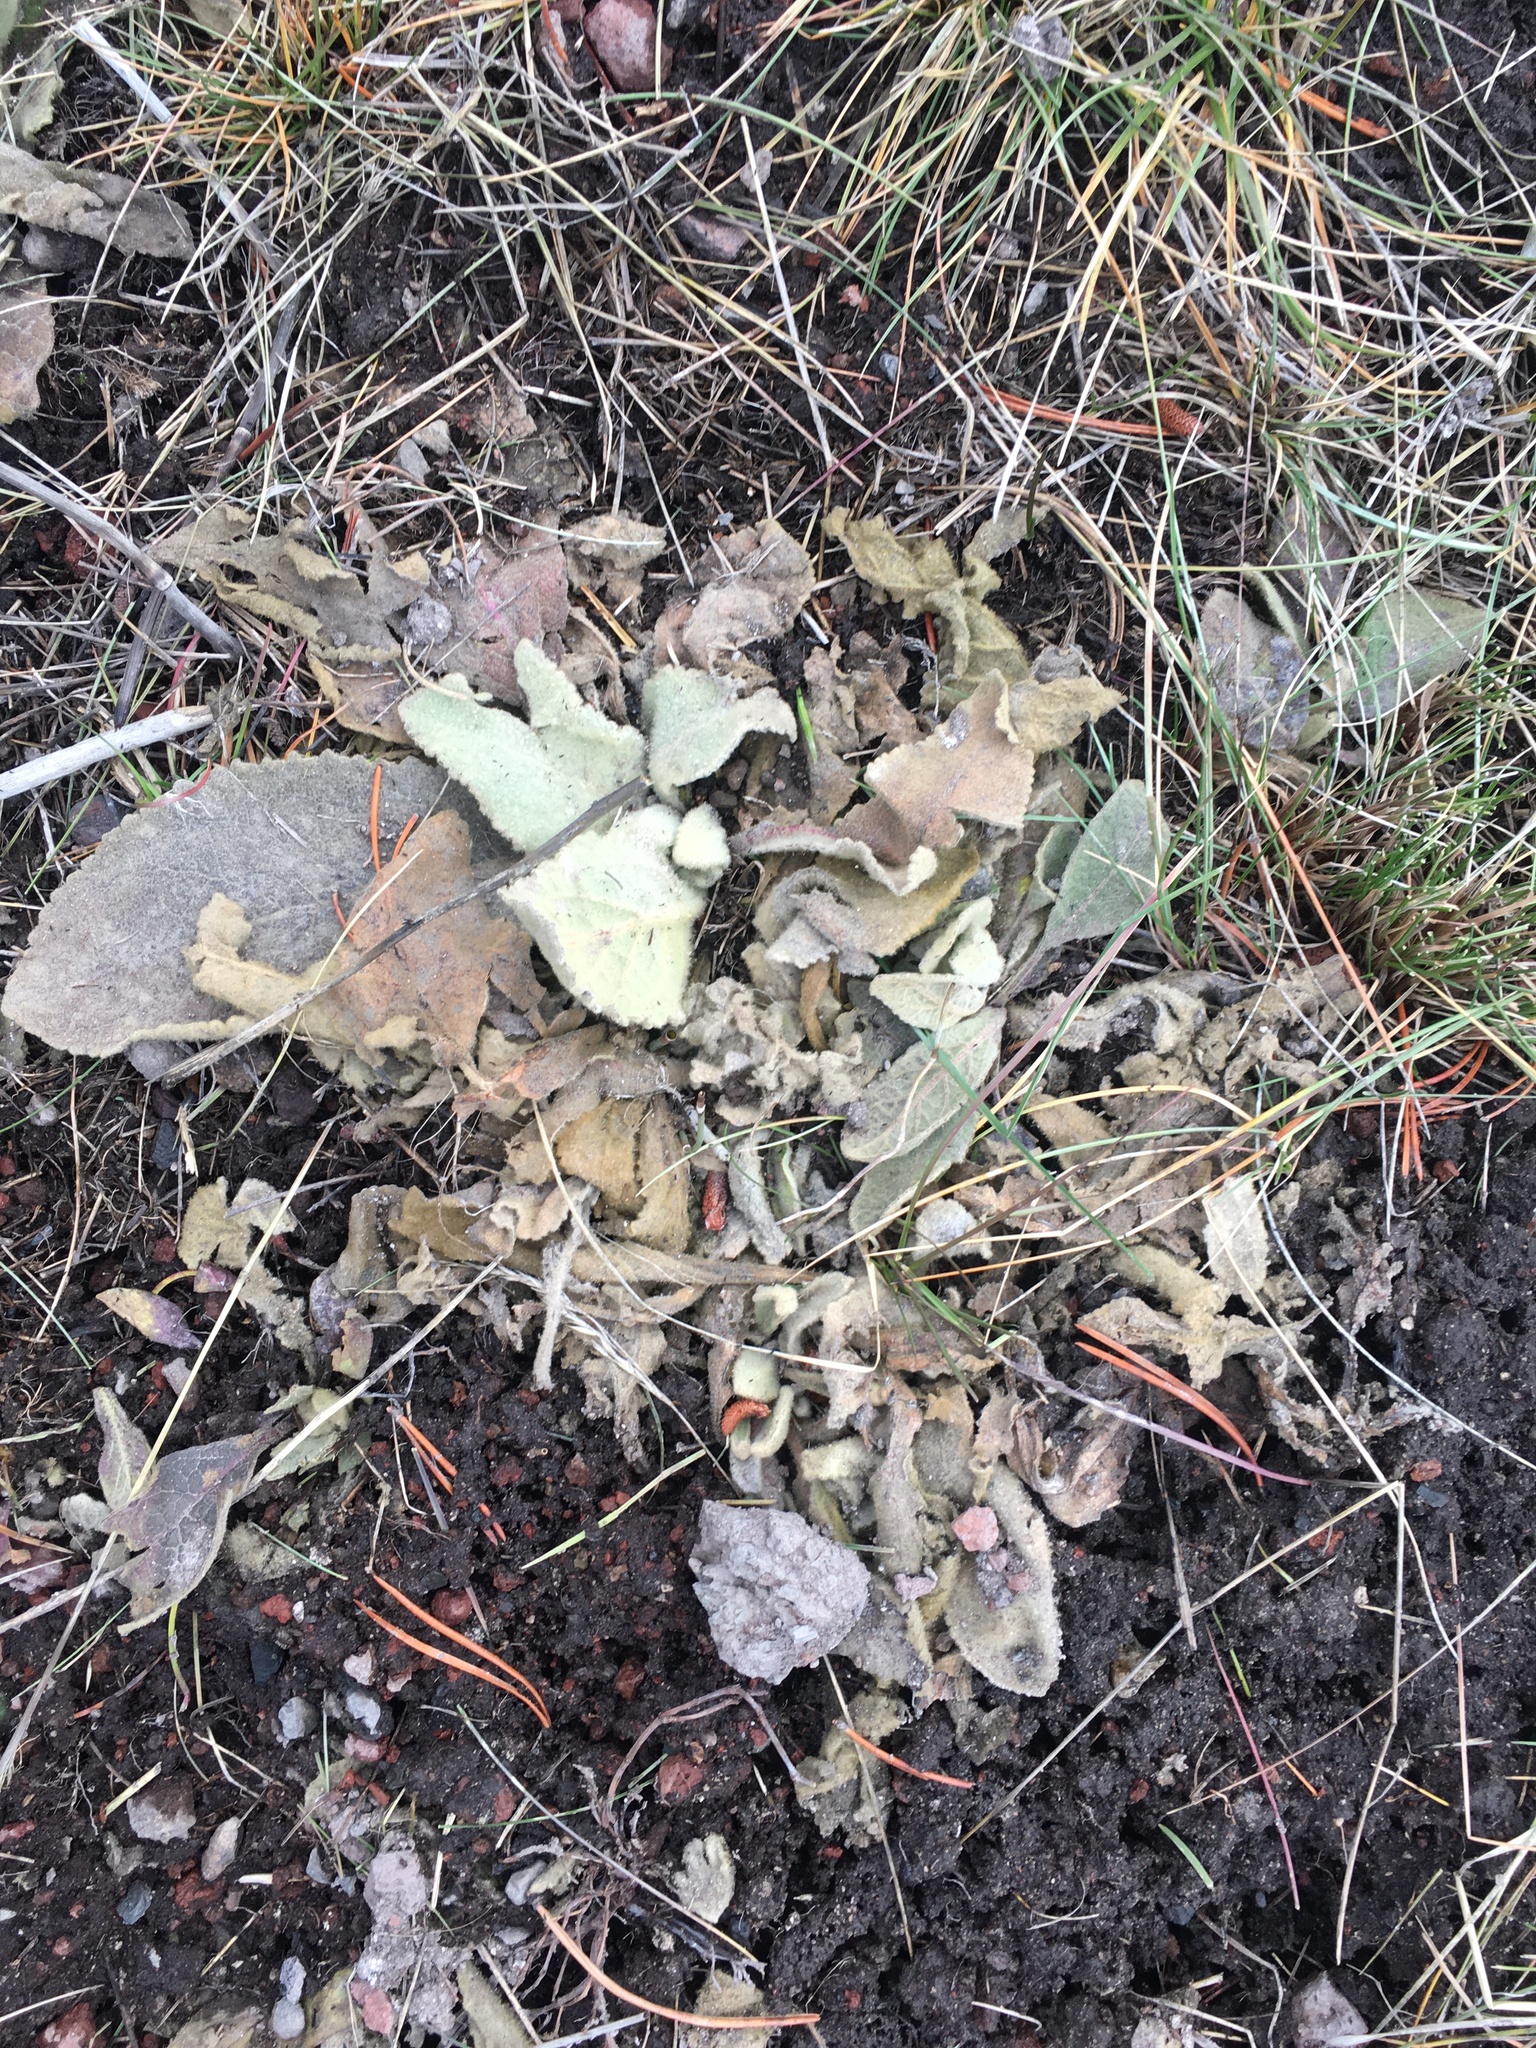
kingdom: Plantae
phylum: Tracheophyta
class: Magnoliopsida
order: Lamiales
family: Scrophulariaceae
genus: Verbascum
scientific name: Verbascum thapsus
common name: Common mullein
